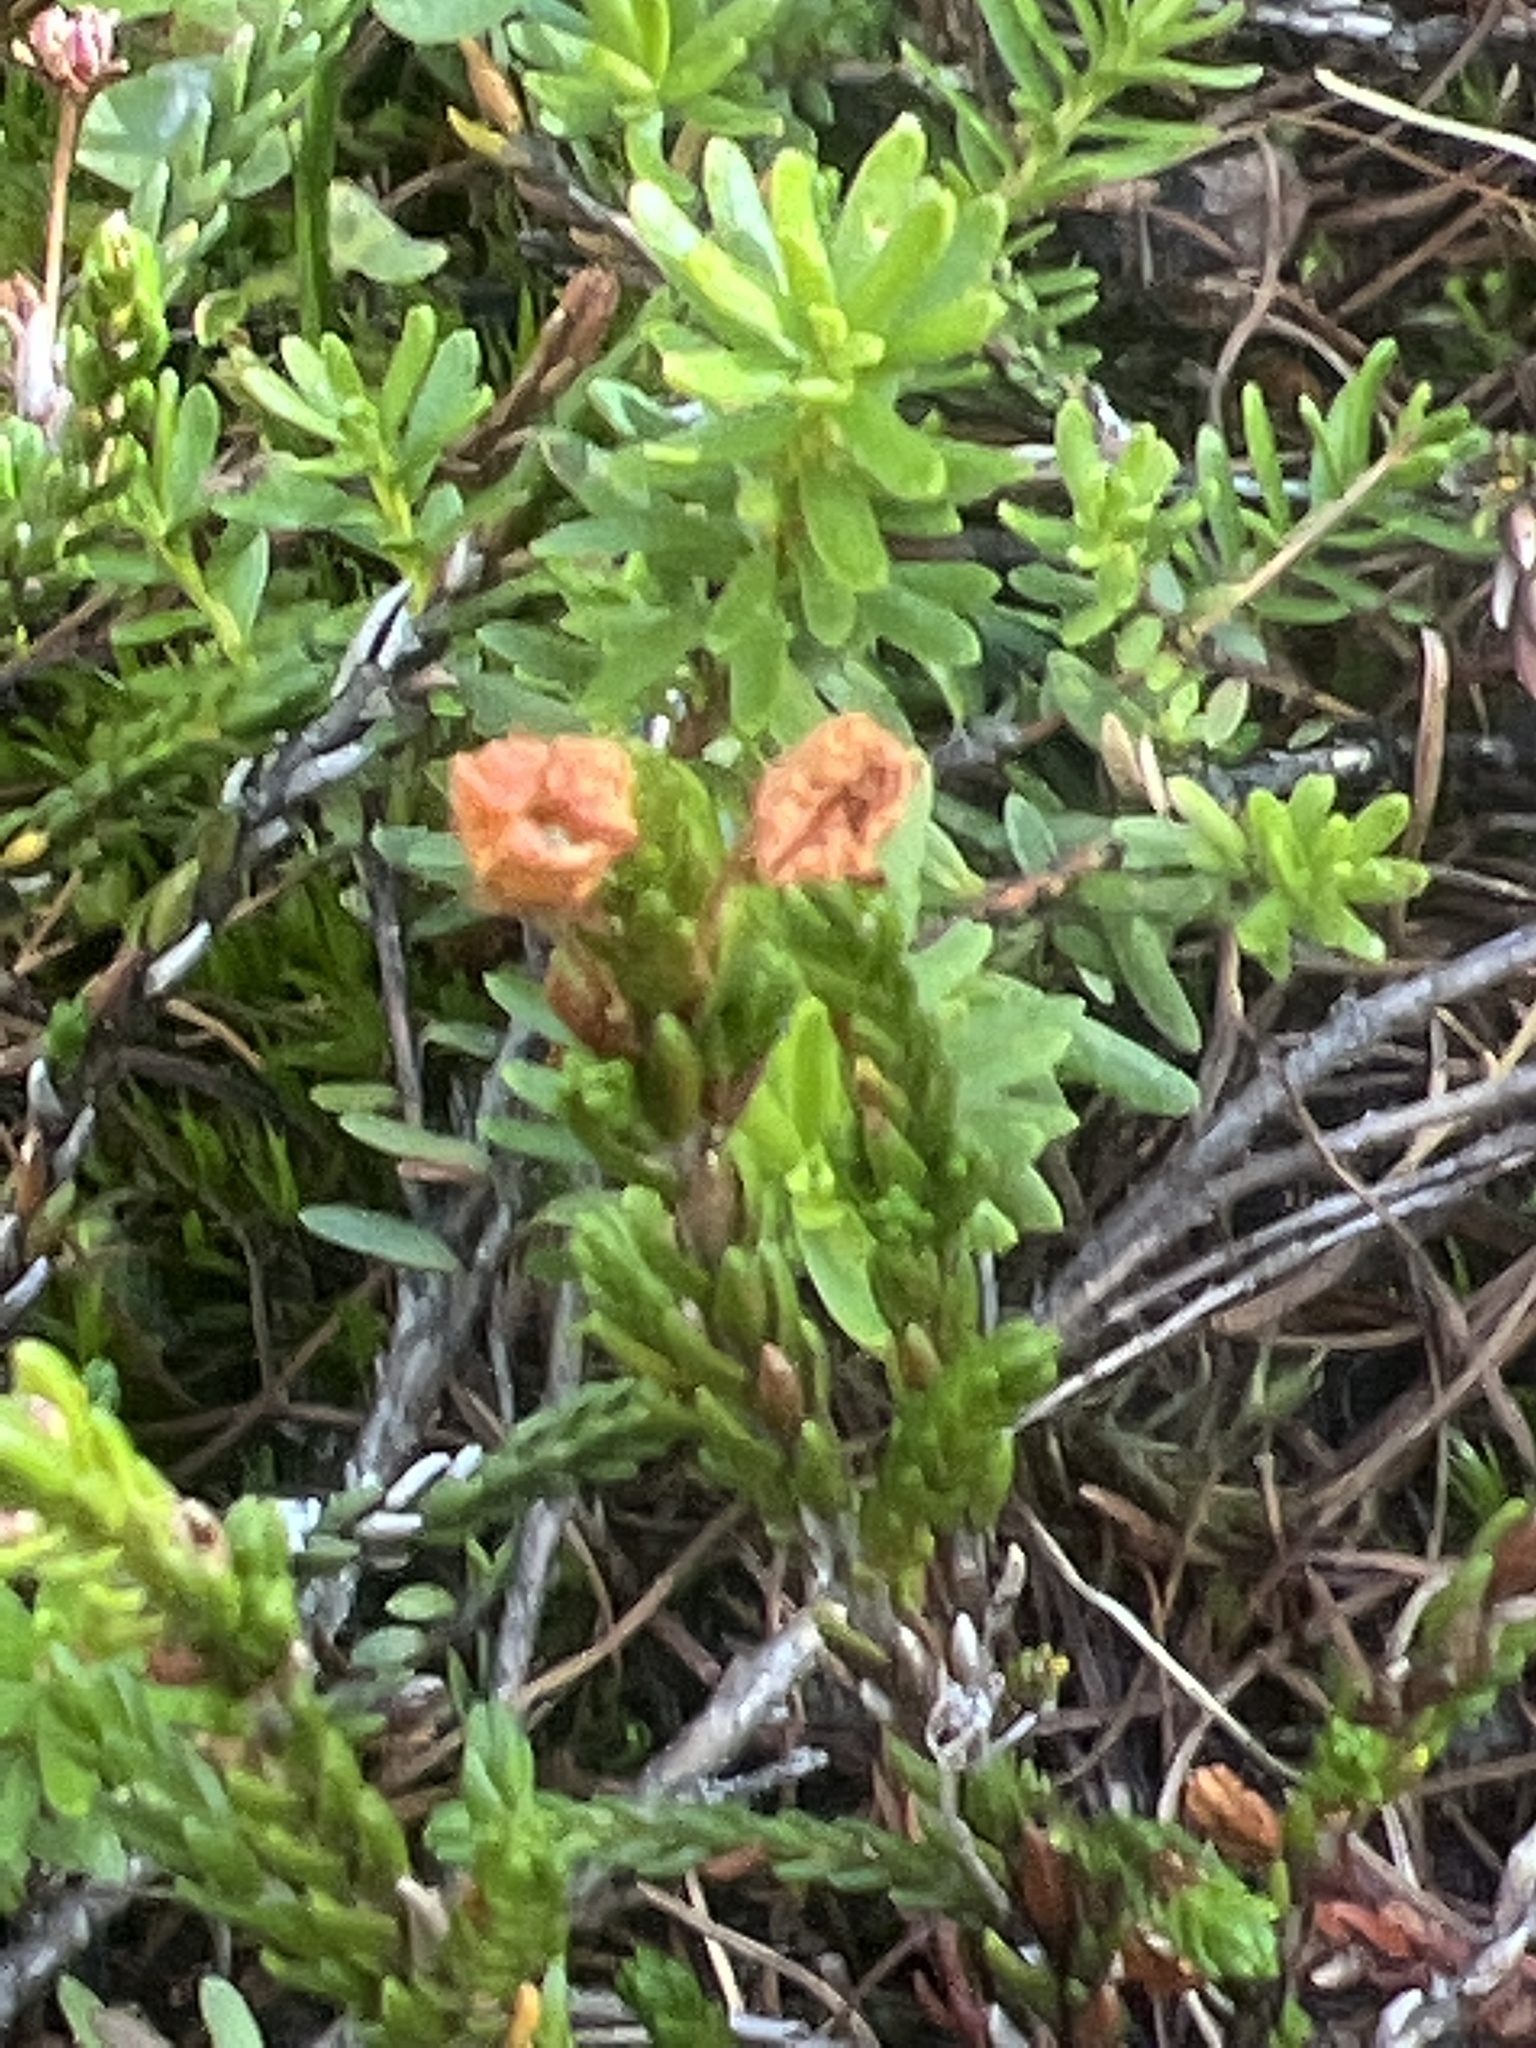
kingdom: Plantae
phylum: Tracheophyta
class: Magnoliopsida
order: Ericales
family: Ericaceae
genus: Cassiope
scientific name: Cassiope mertensiana
